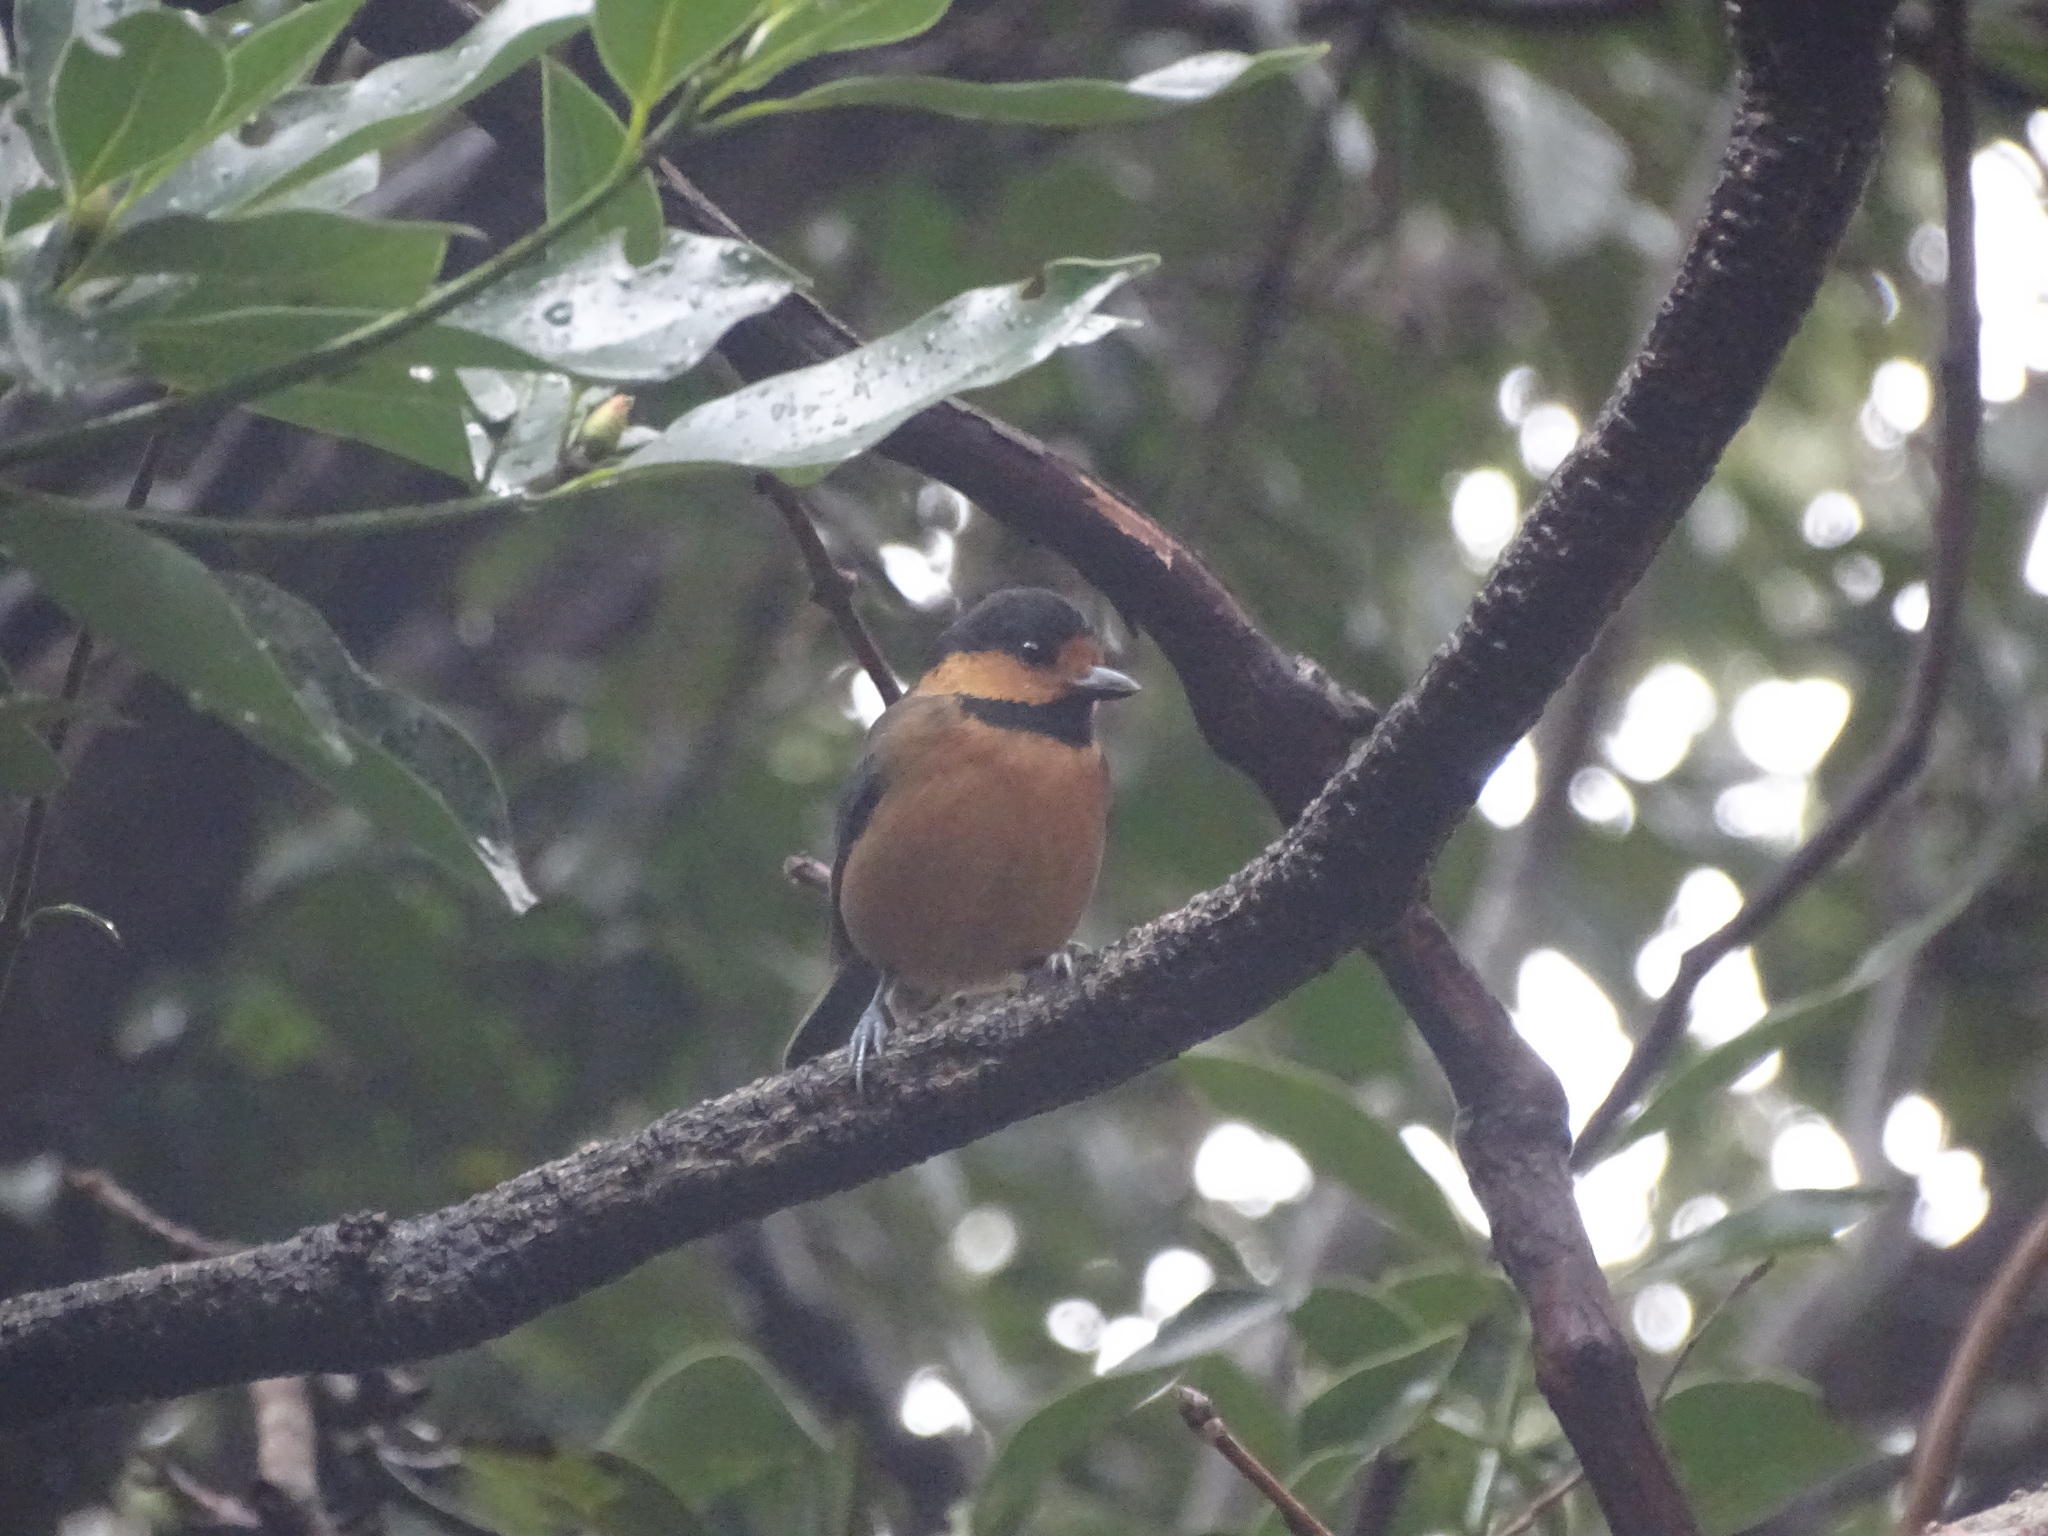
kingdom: Animalia
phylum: Chordata
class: Aves
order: Passeriformes
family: Paridae
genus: Poecile
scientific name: Poecile varius
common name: Varied tit
